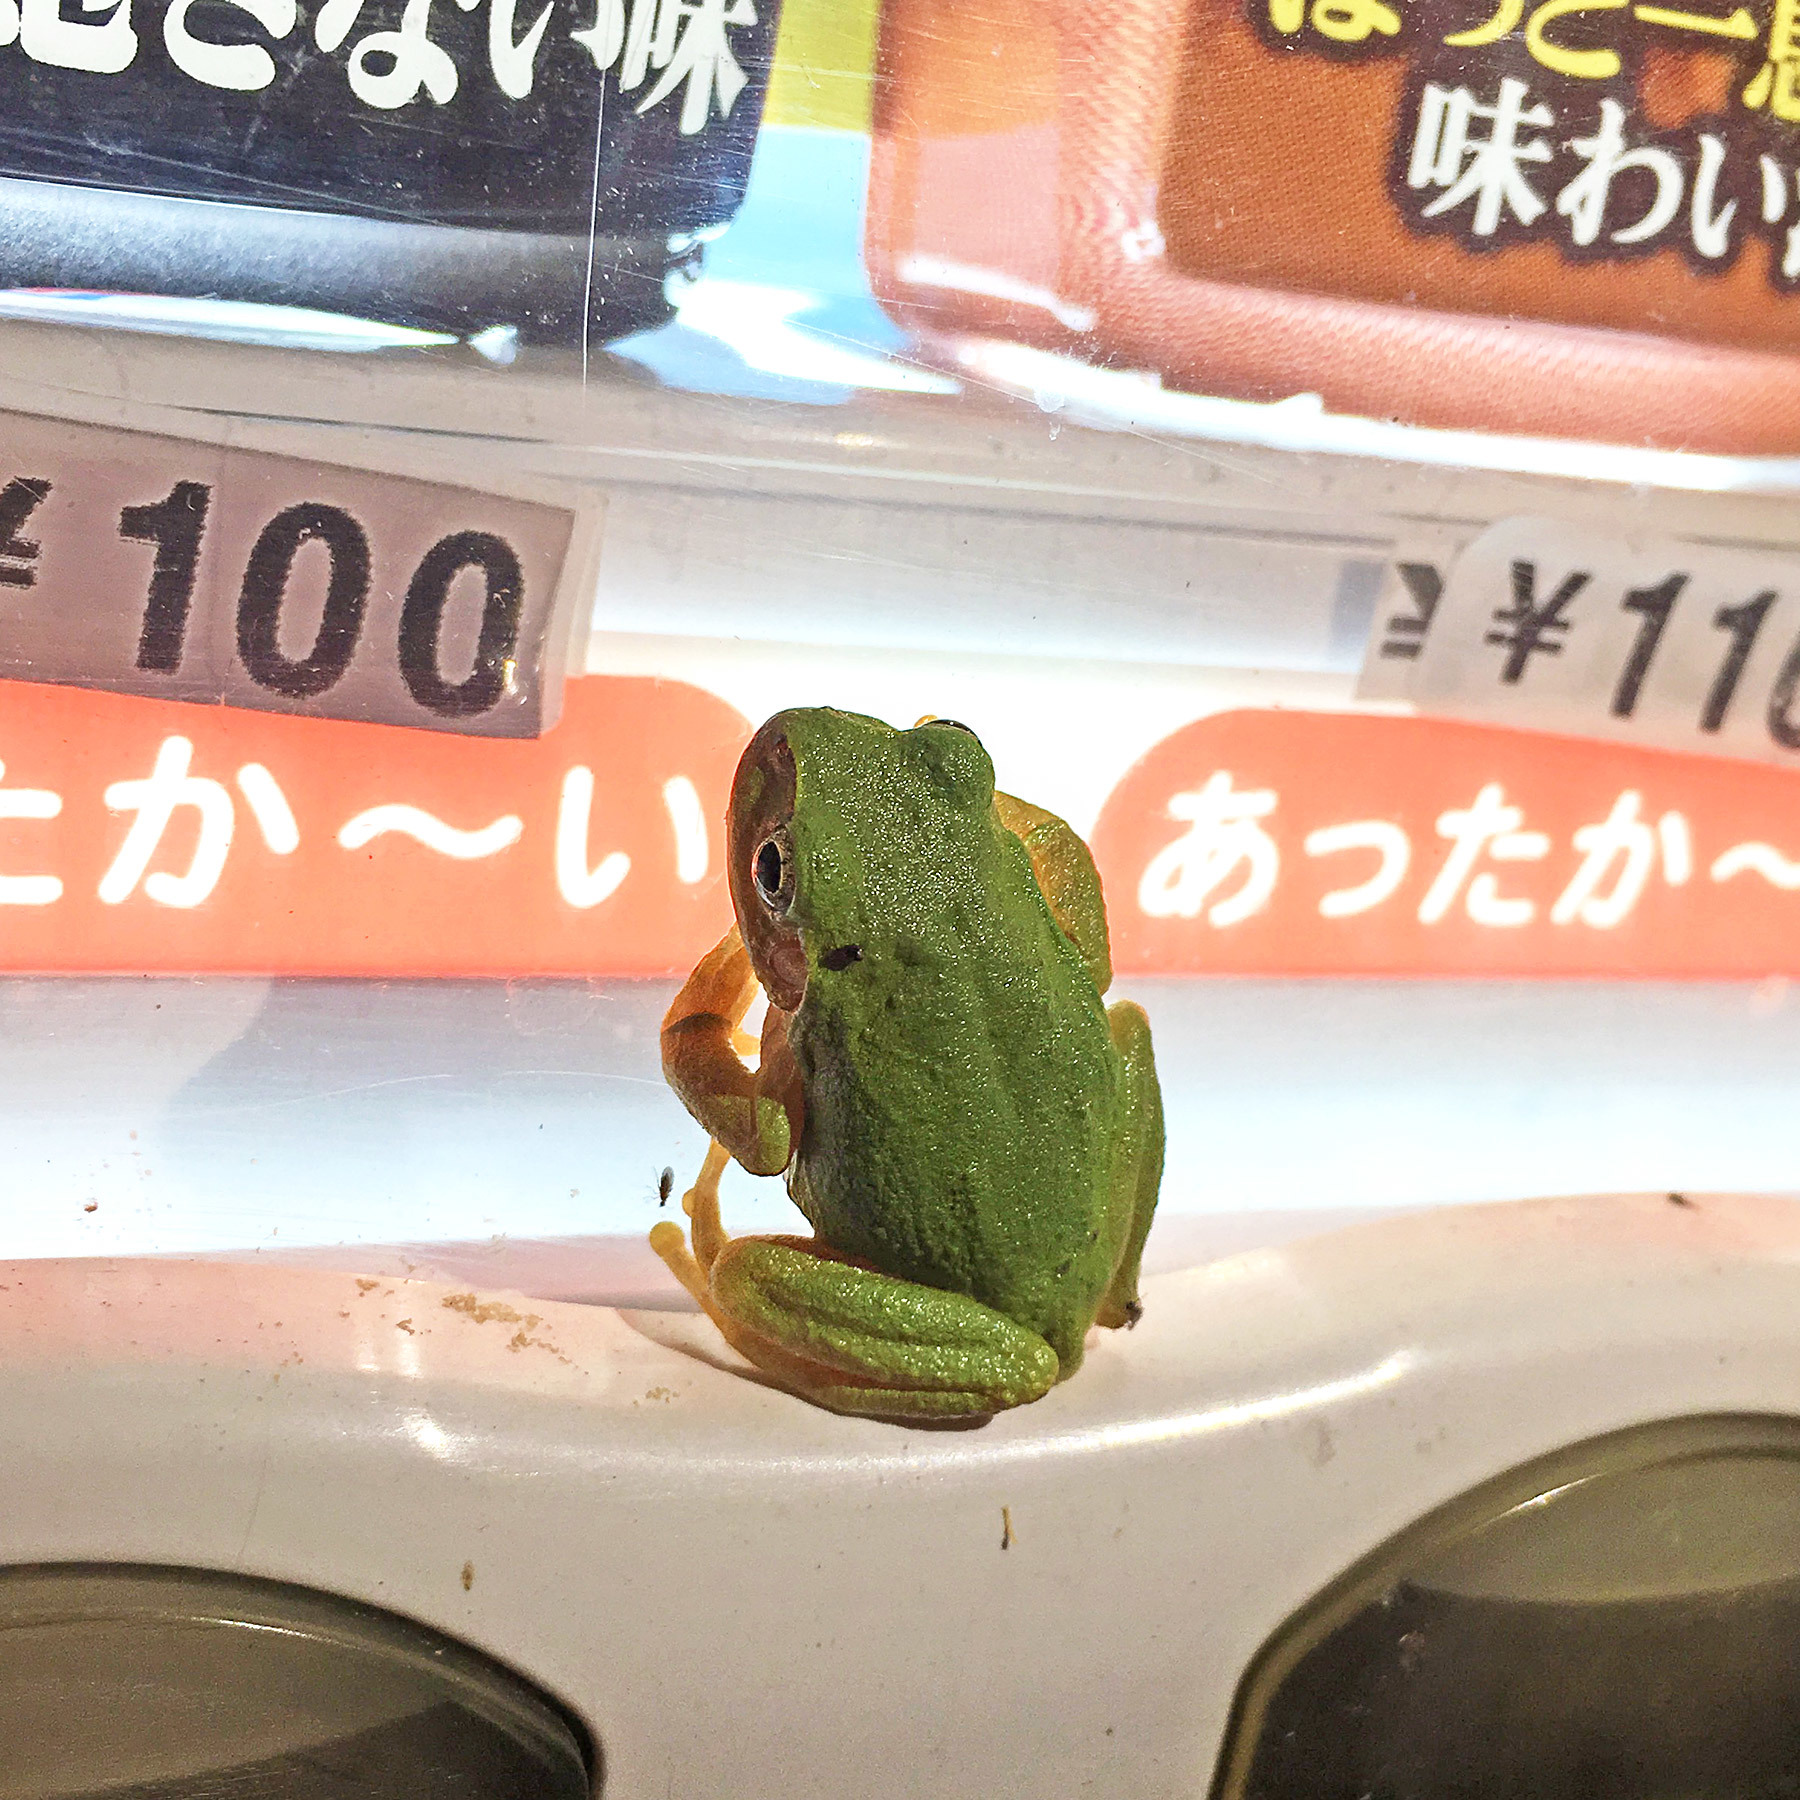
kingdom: Animalia
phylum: Chordata
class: Amphibia
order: Anura
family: Hylidae
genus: Dryophytes
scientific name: Dryophytes japonicus
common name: Japanese treefrog
